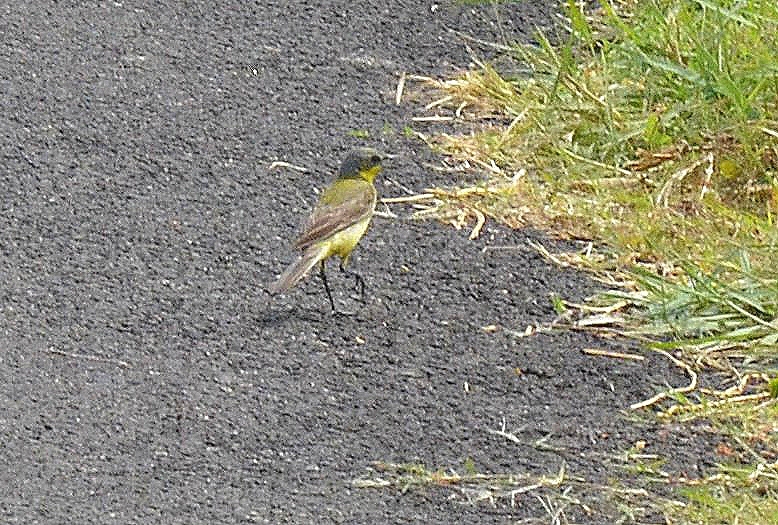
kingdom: Animalia
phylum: Chordata
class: Aves
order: Passeriformes
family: Motacillidae
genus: Motacilla
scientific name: Motacilla flava
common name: Western yellow wagtail
